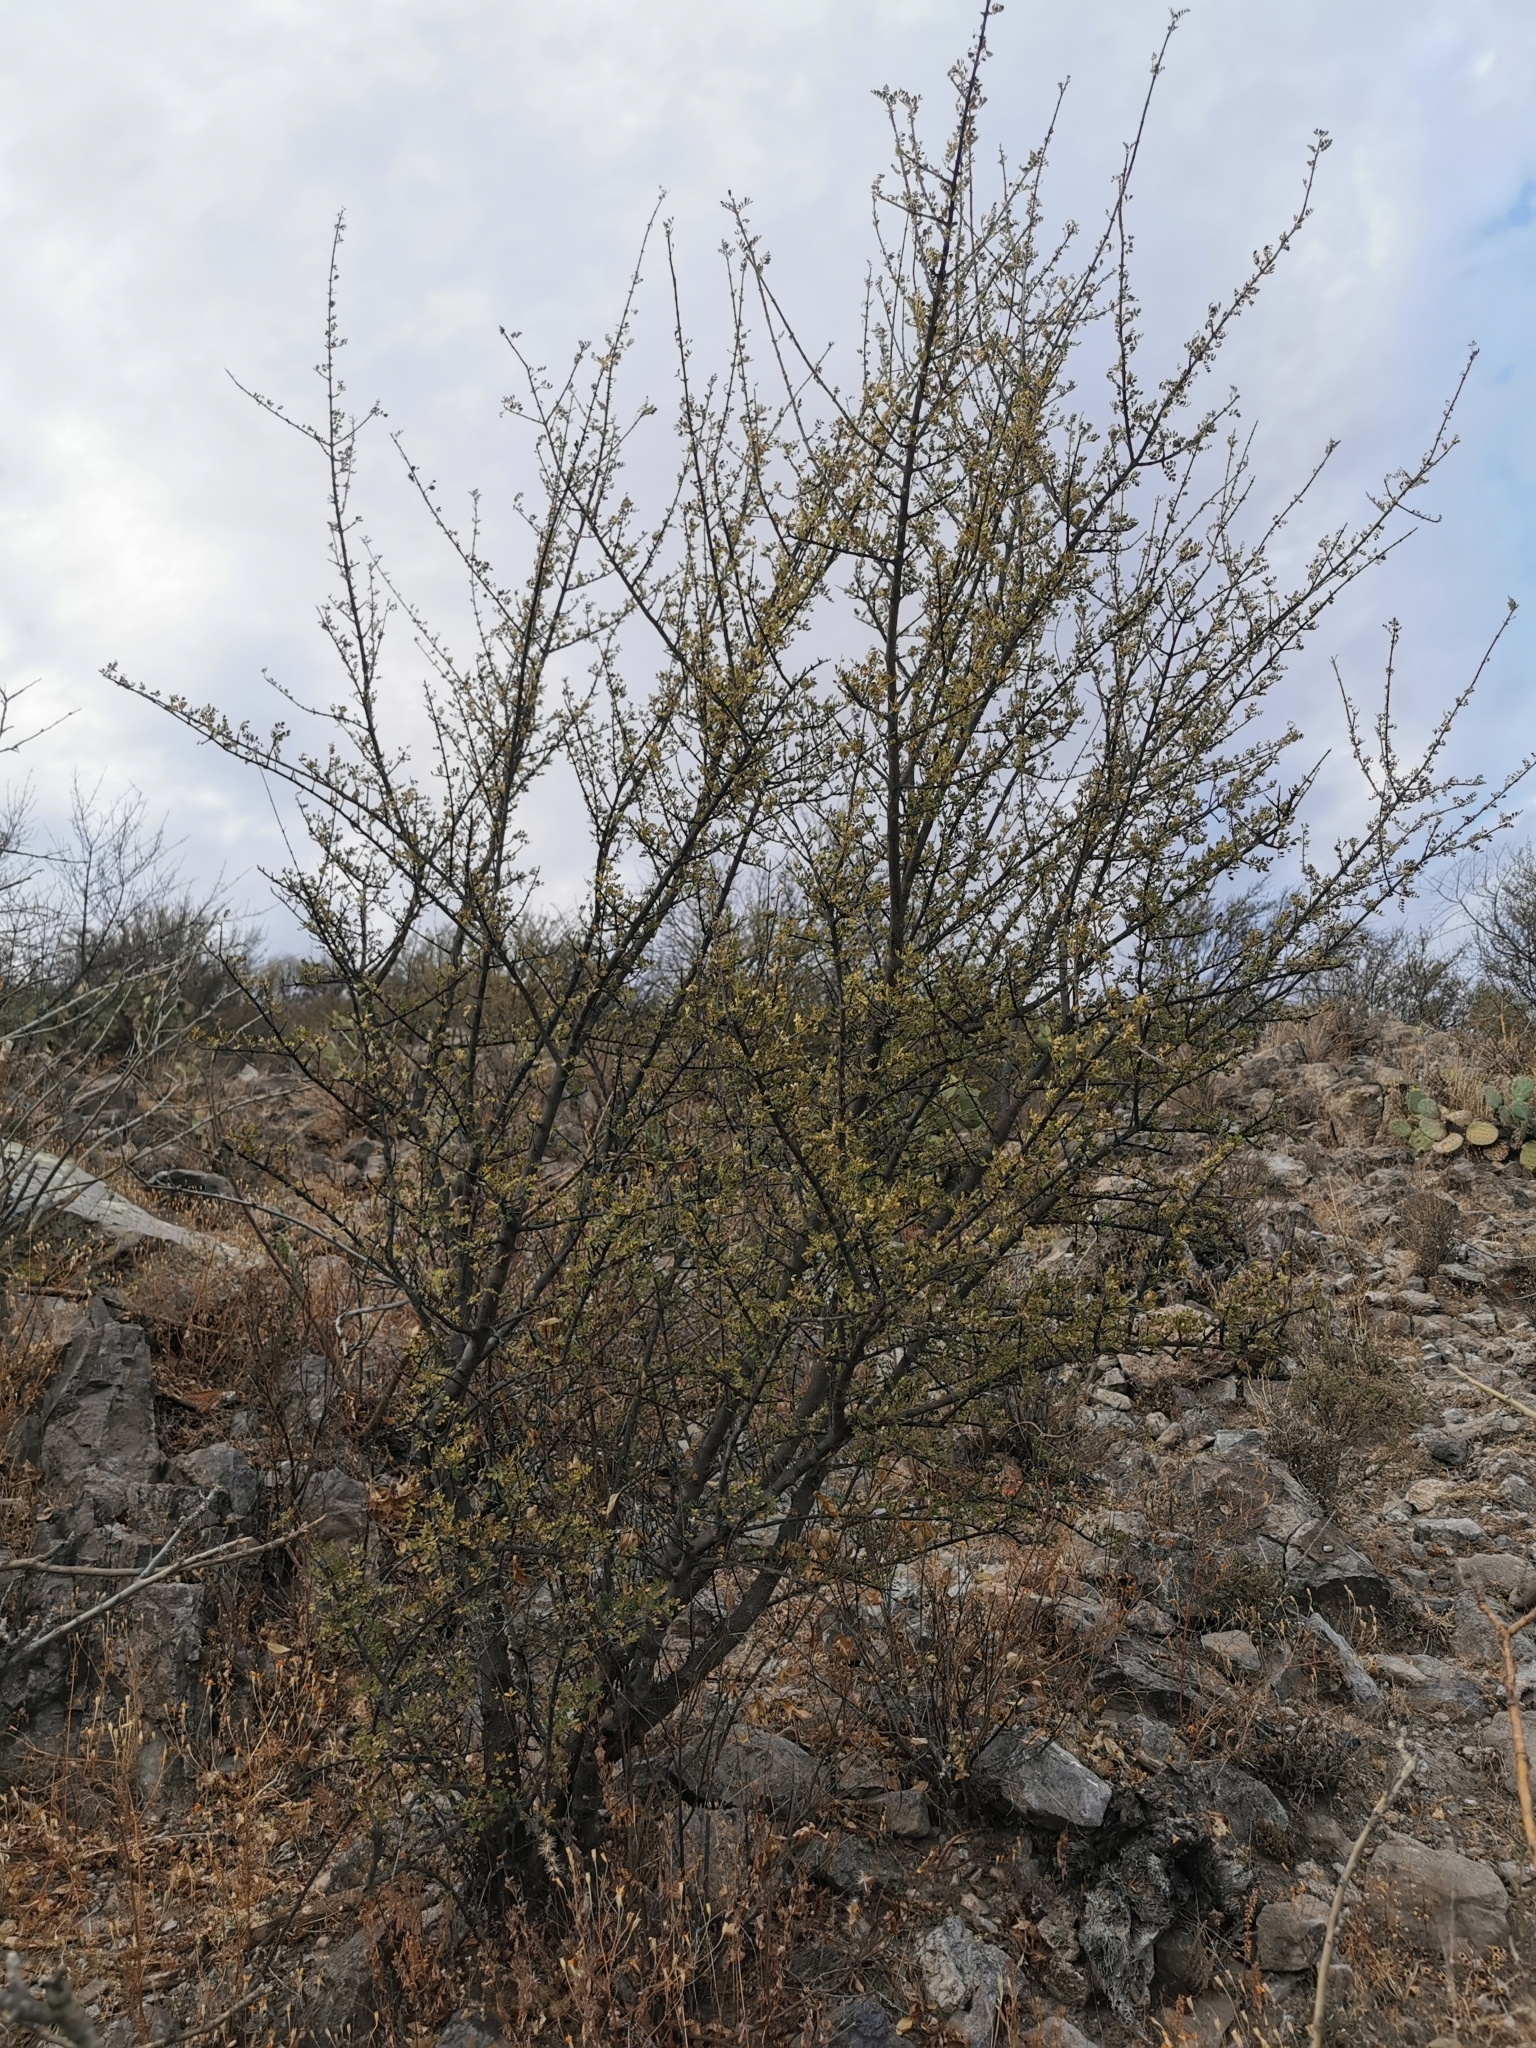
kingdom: Plantae
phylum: Tracheophyta
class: Magnoliopsida
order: Sapindales
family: Anacardiaceae
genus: Rhus
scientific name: Rhus microphylla
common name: Desert sumac
